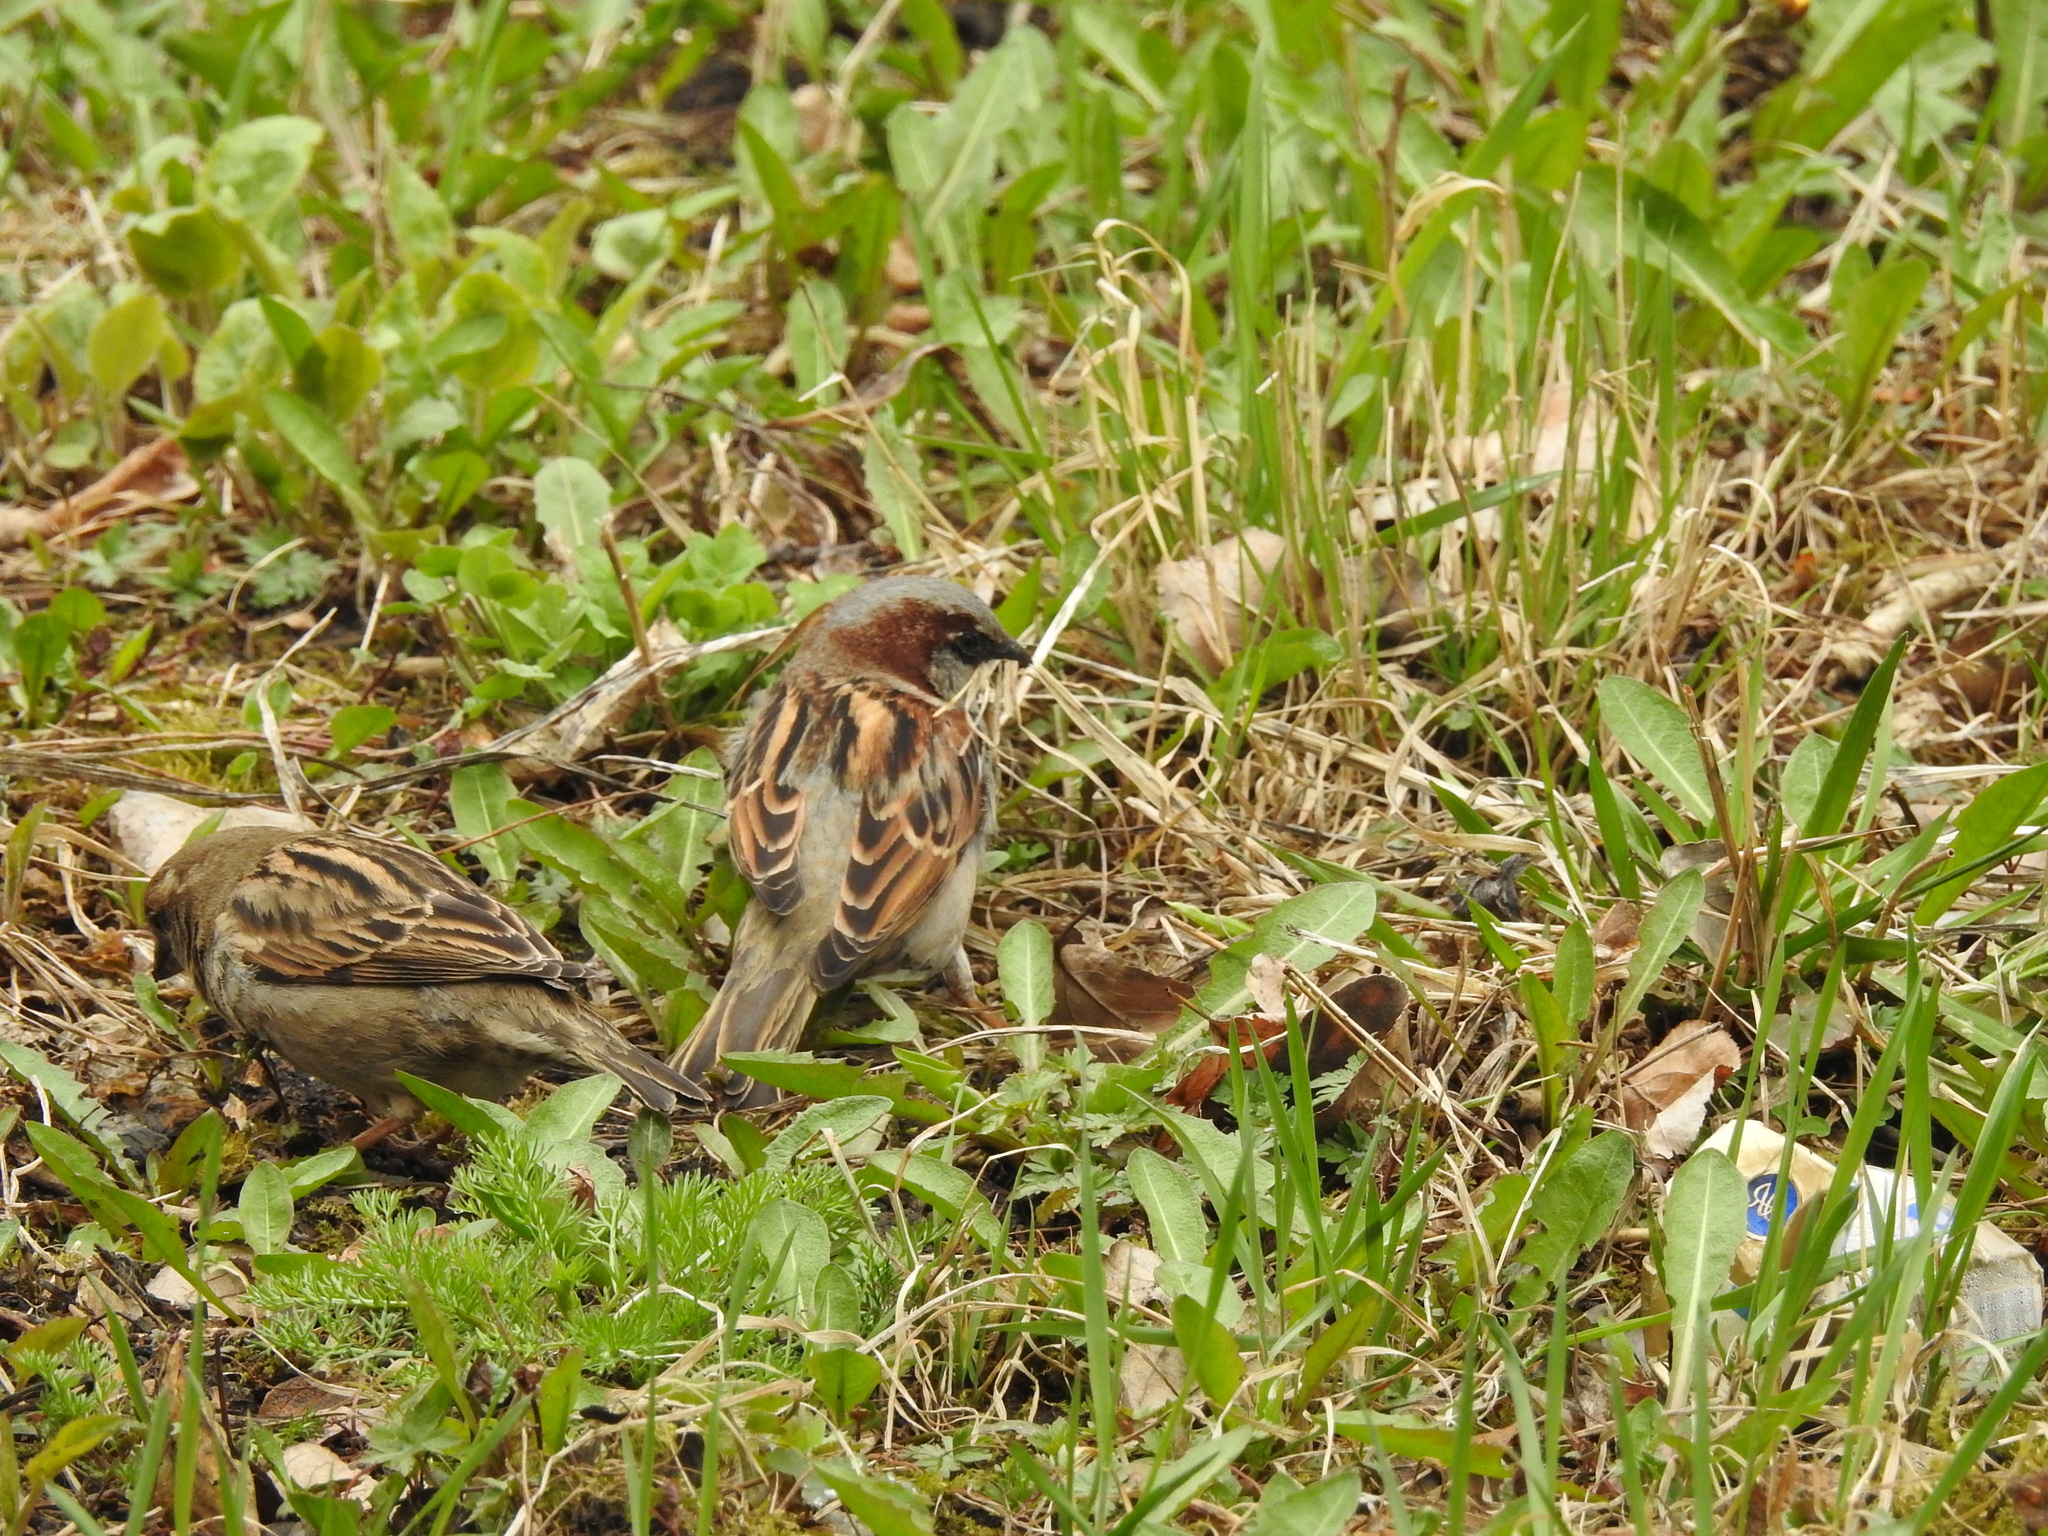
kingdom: Animalia
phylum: Chordata
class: Aves
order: Passeriformes
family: Passeridae
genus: Passer
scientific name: Passer domesticus
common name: House sparrow
